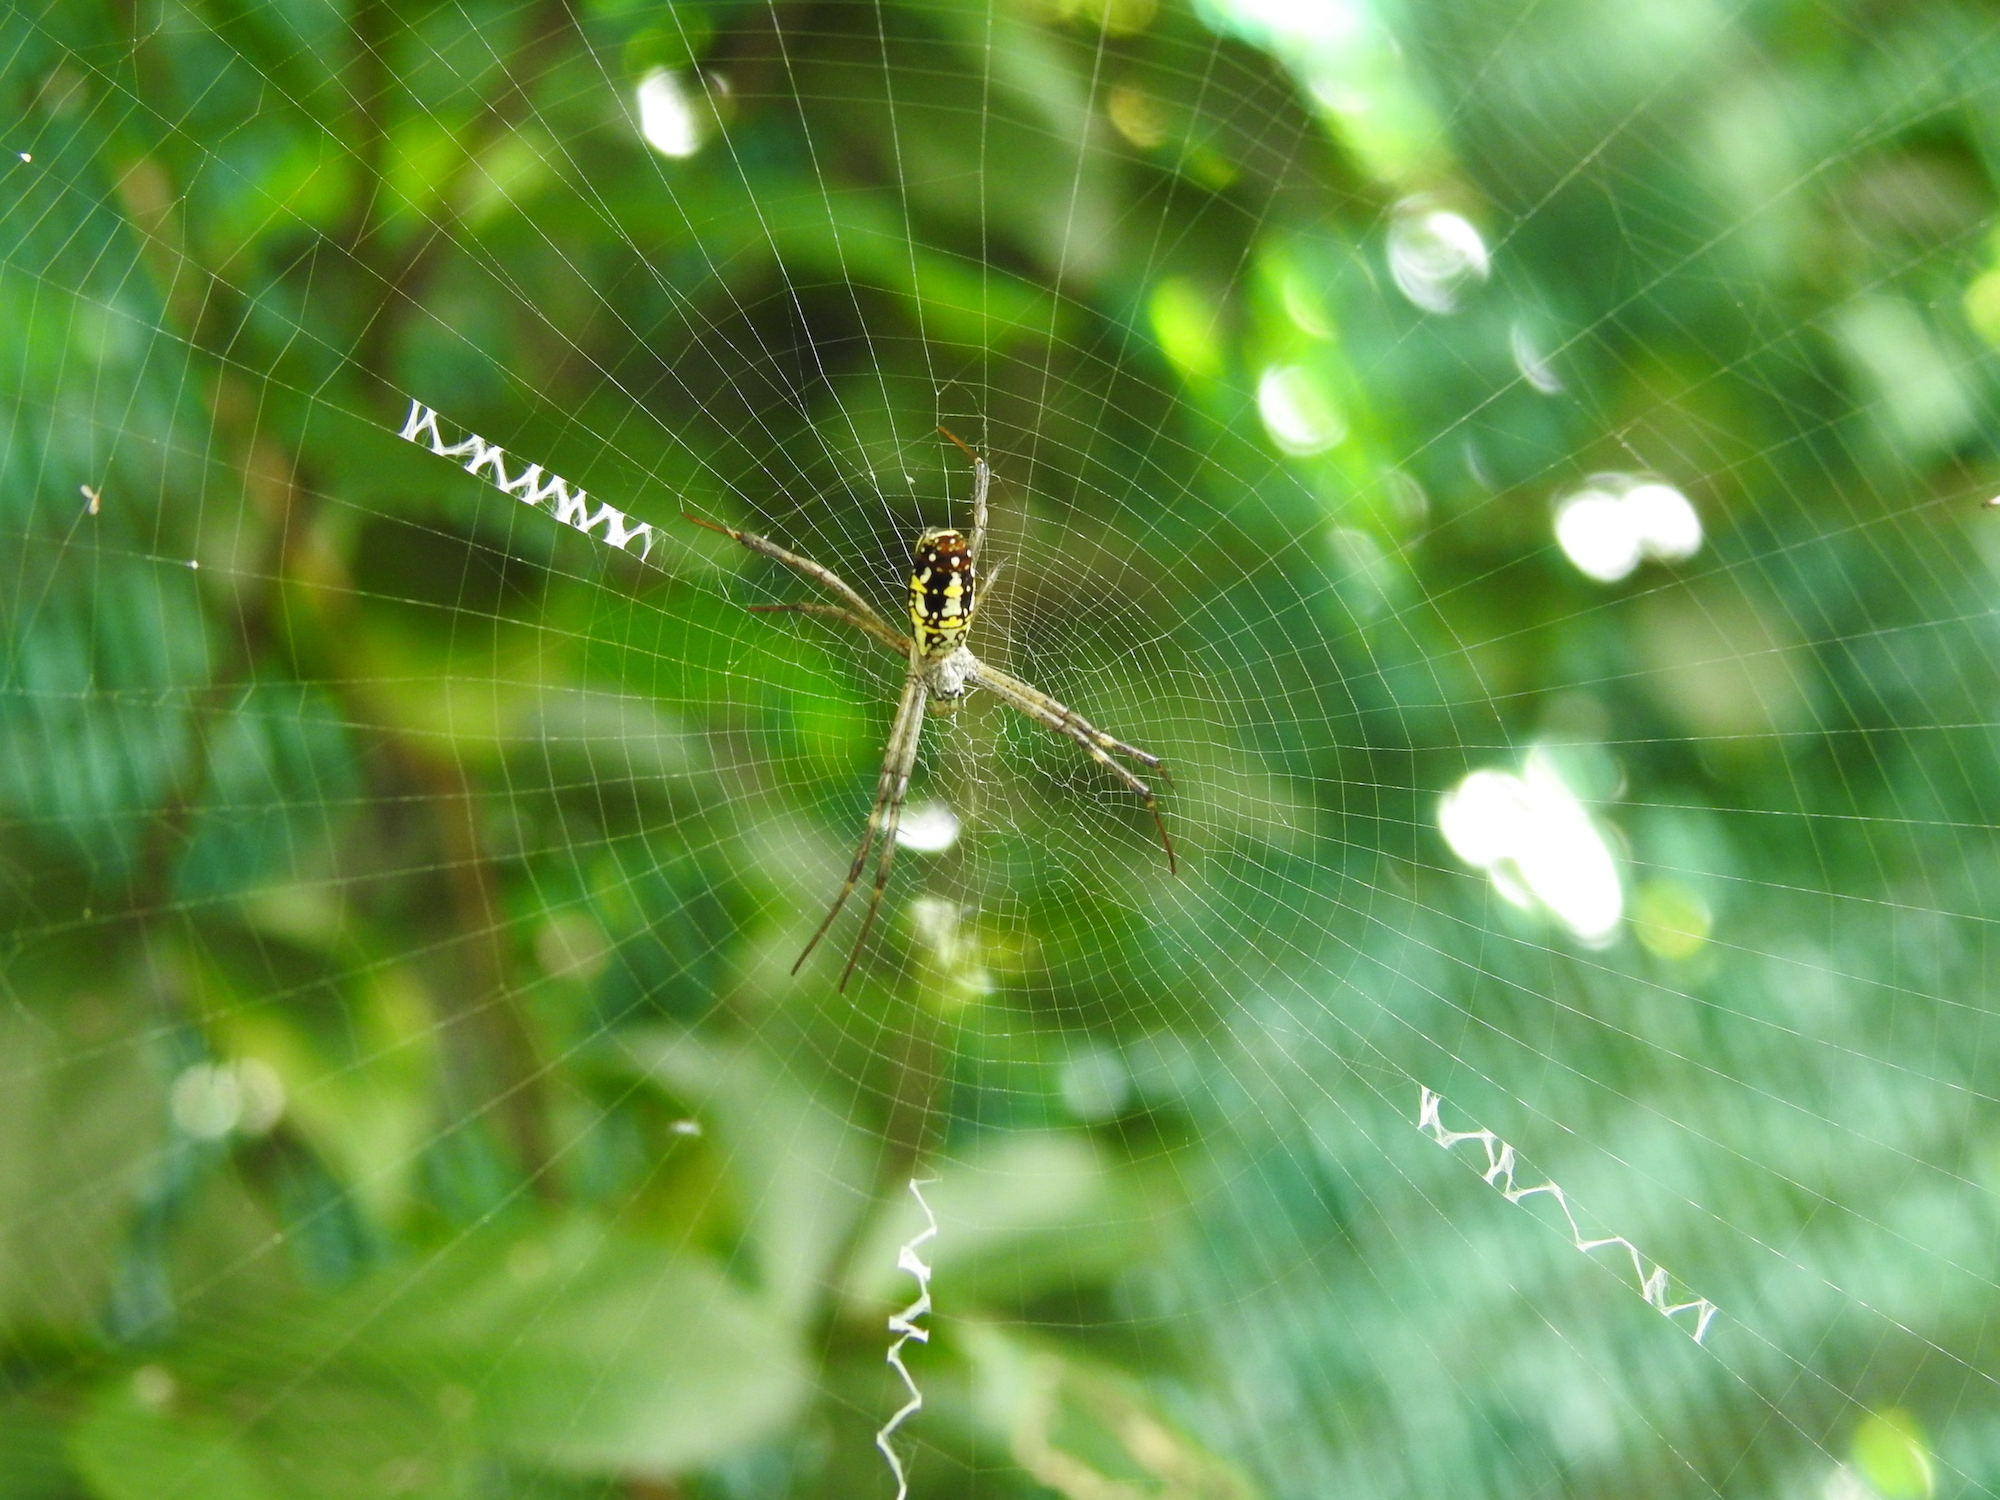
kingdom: Animalia
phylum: Arthropoda
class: Arachnida
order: Araneae
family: Araneidae
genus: Argiope
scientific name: Argiope dang
